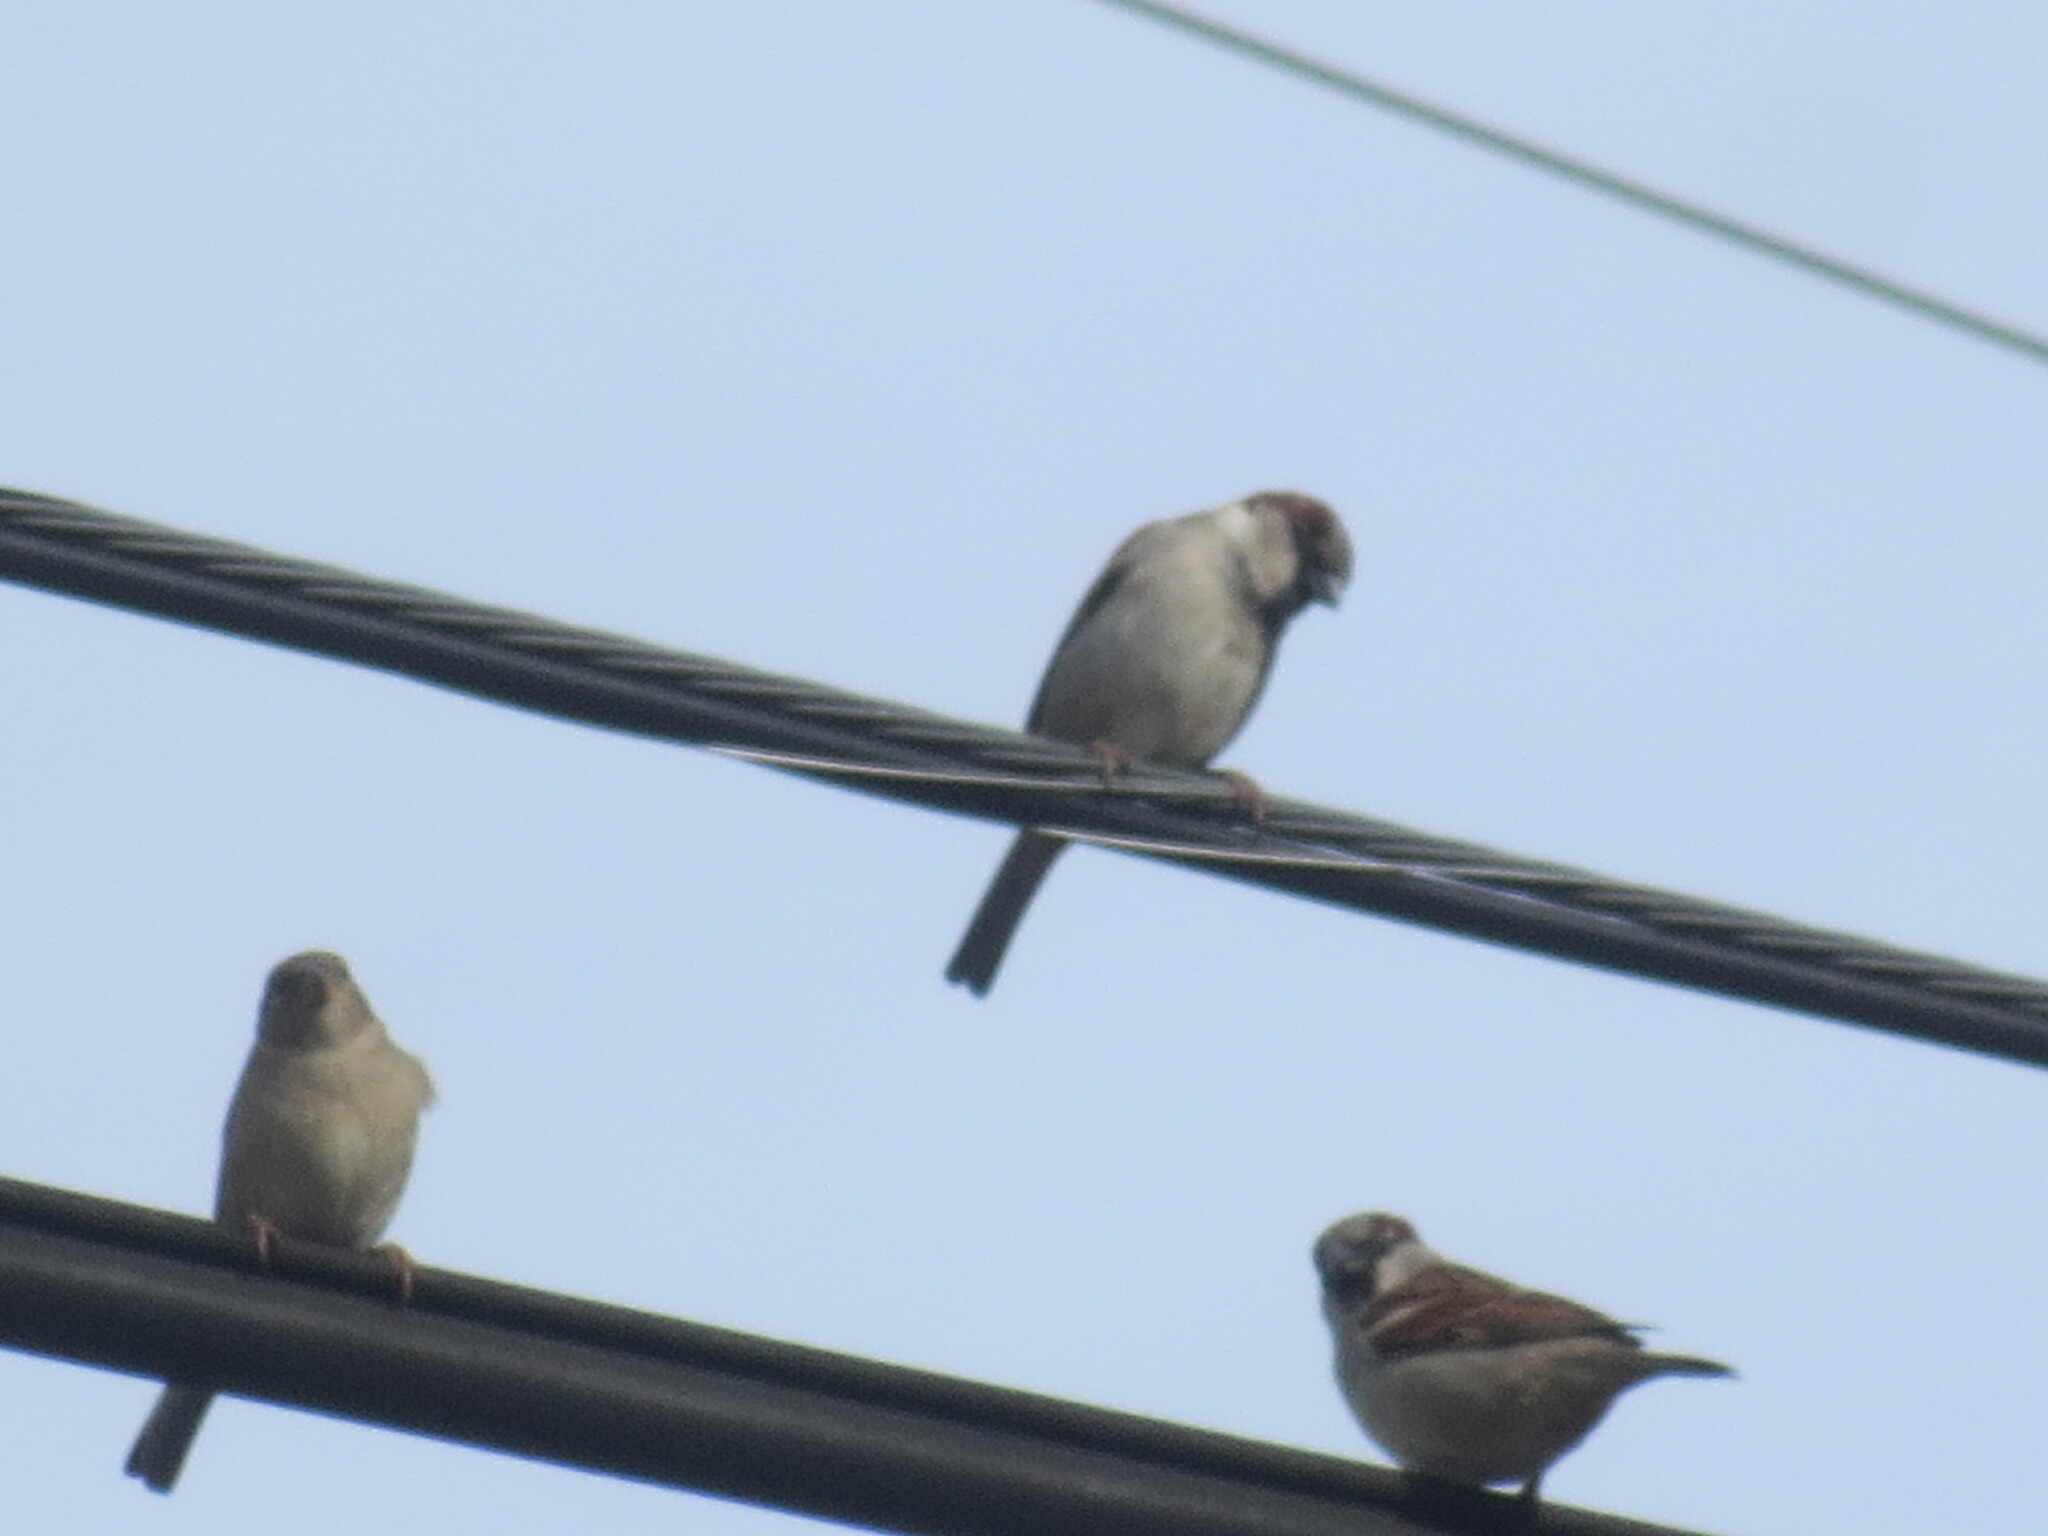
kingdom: Animalia
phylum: Chordata
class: Aves
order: Passeriformes
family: Passeridae
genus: Passer
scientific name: Passer domesticus
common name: House sparrow
